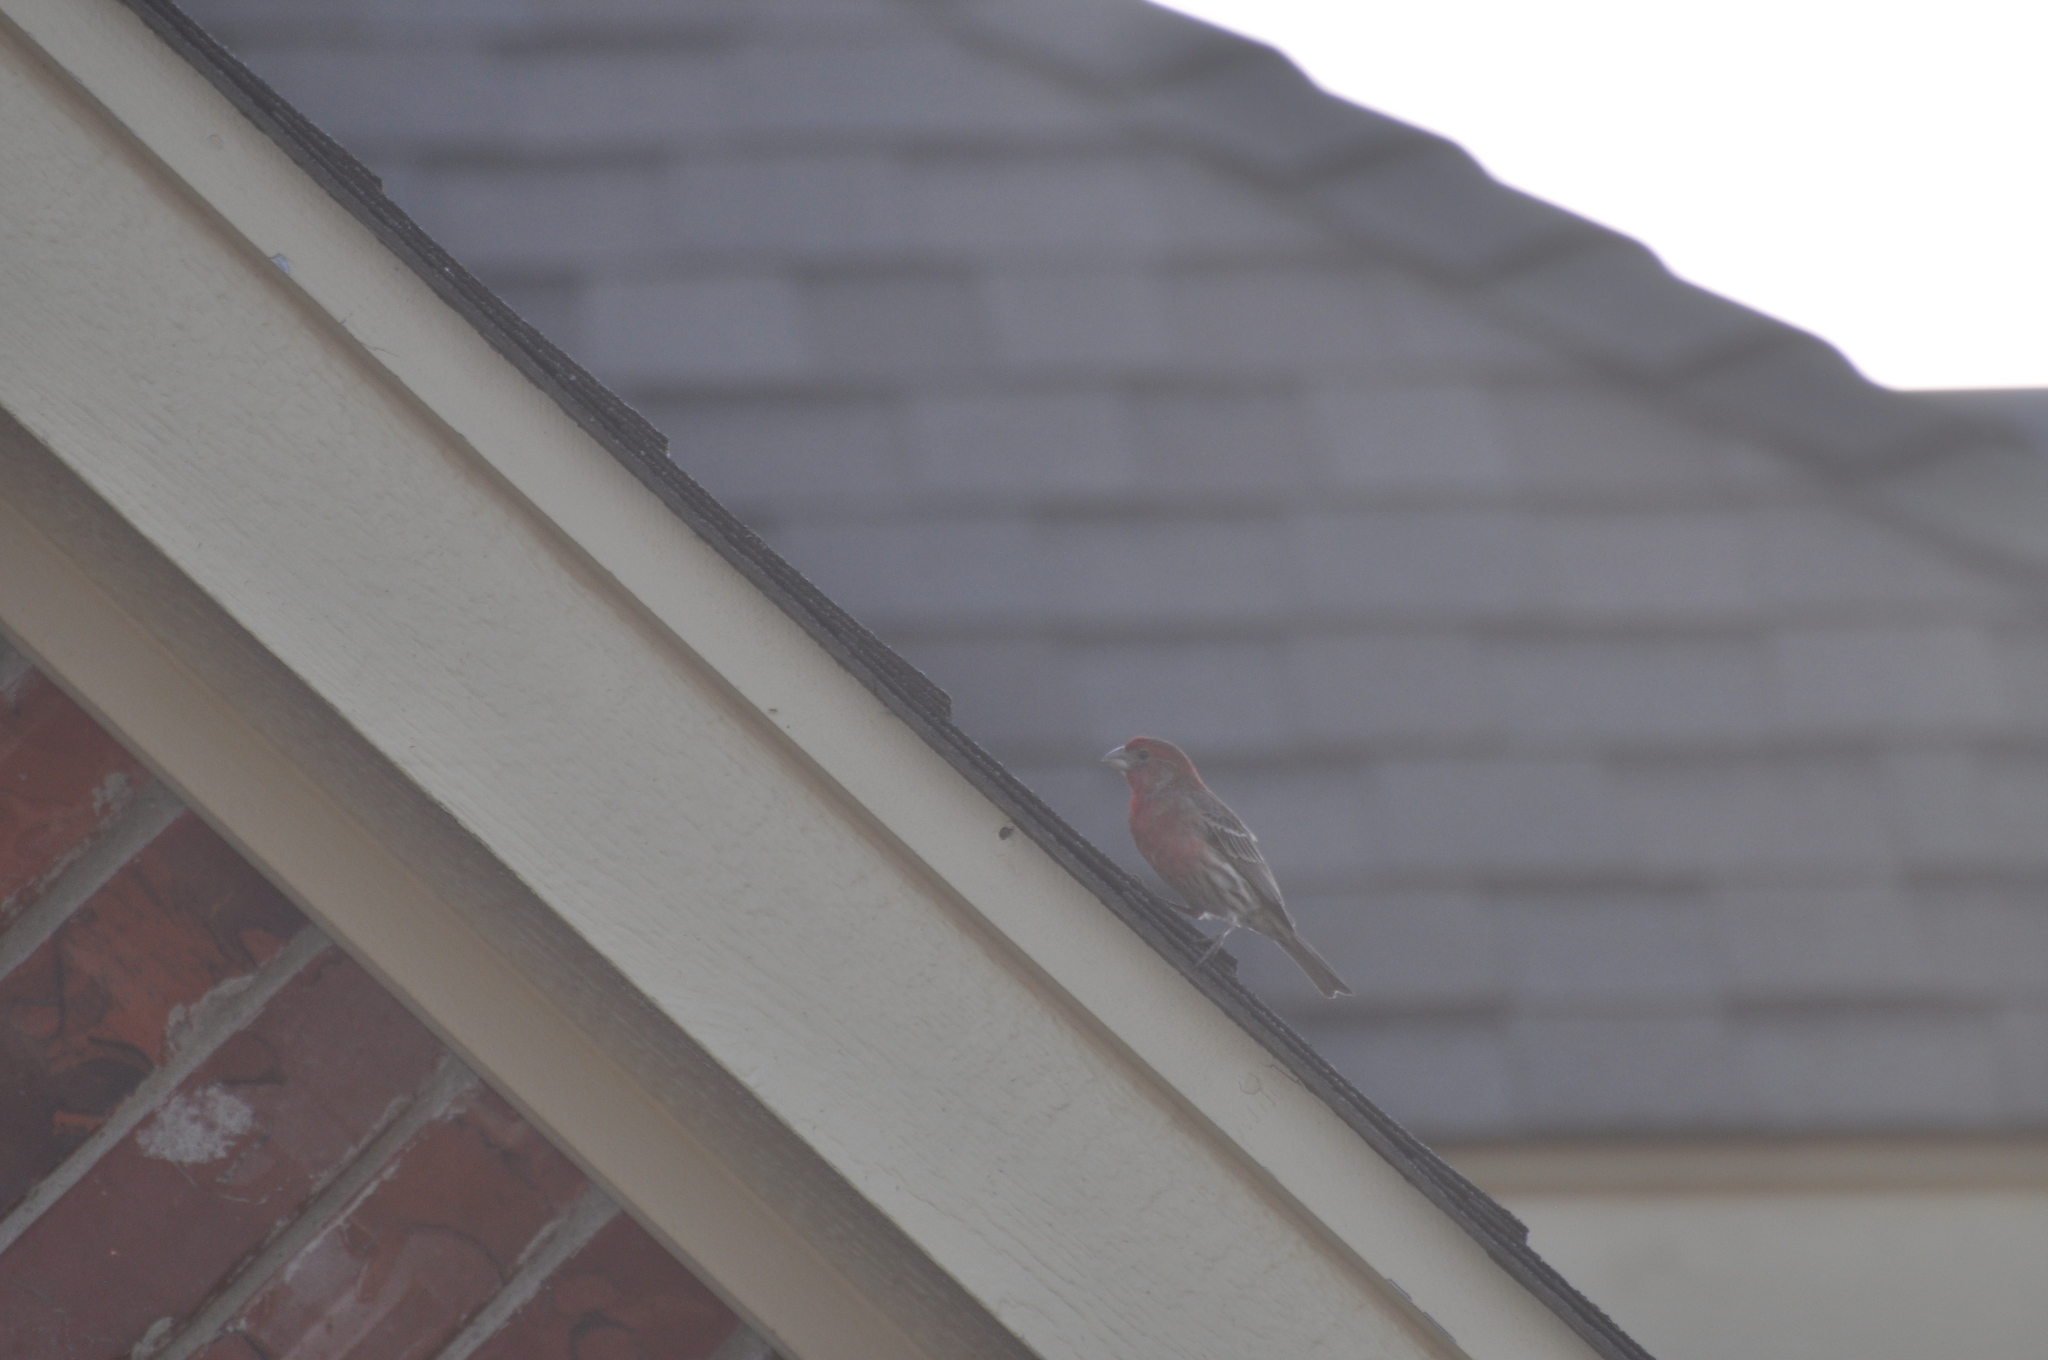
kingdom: Animalia
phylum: Chordata
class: Aves
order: Passeriformes
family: Fringillidae
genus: Haemorhous
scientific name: Haemorhous mexicanus
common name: House finch
